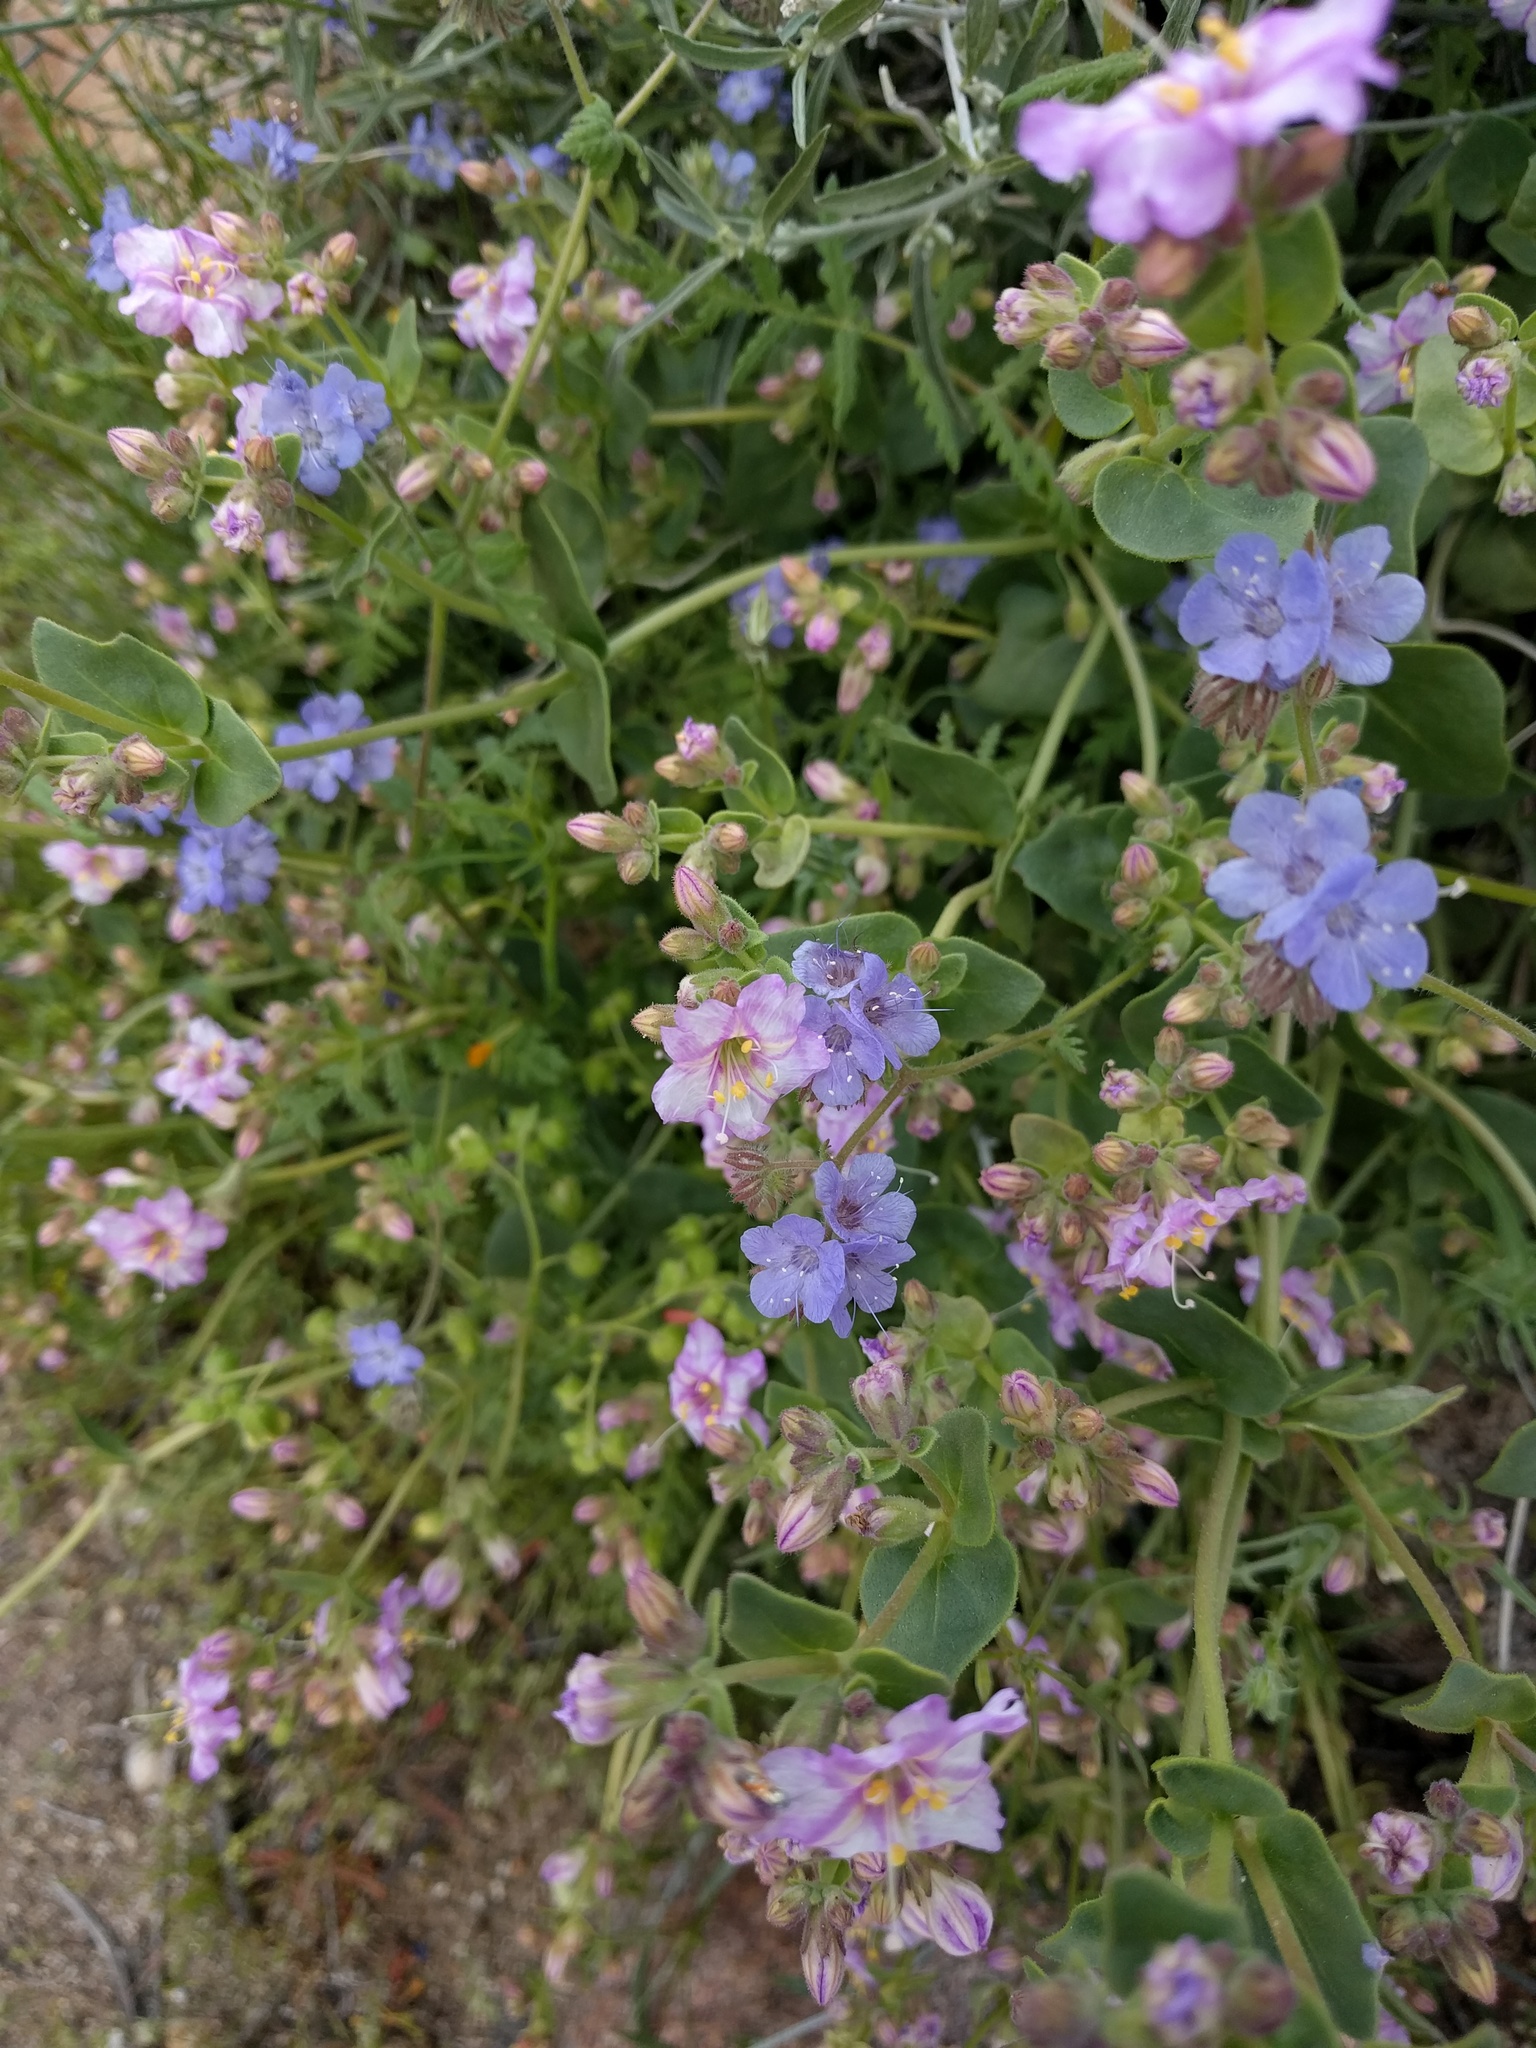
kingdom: Plantae
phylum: Tracheophyta
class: Magnoliopsida
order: Boraginales
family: Hydrophyllaceae
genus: Phacelia
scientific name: Phacelia distans
